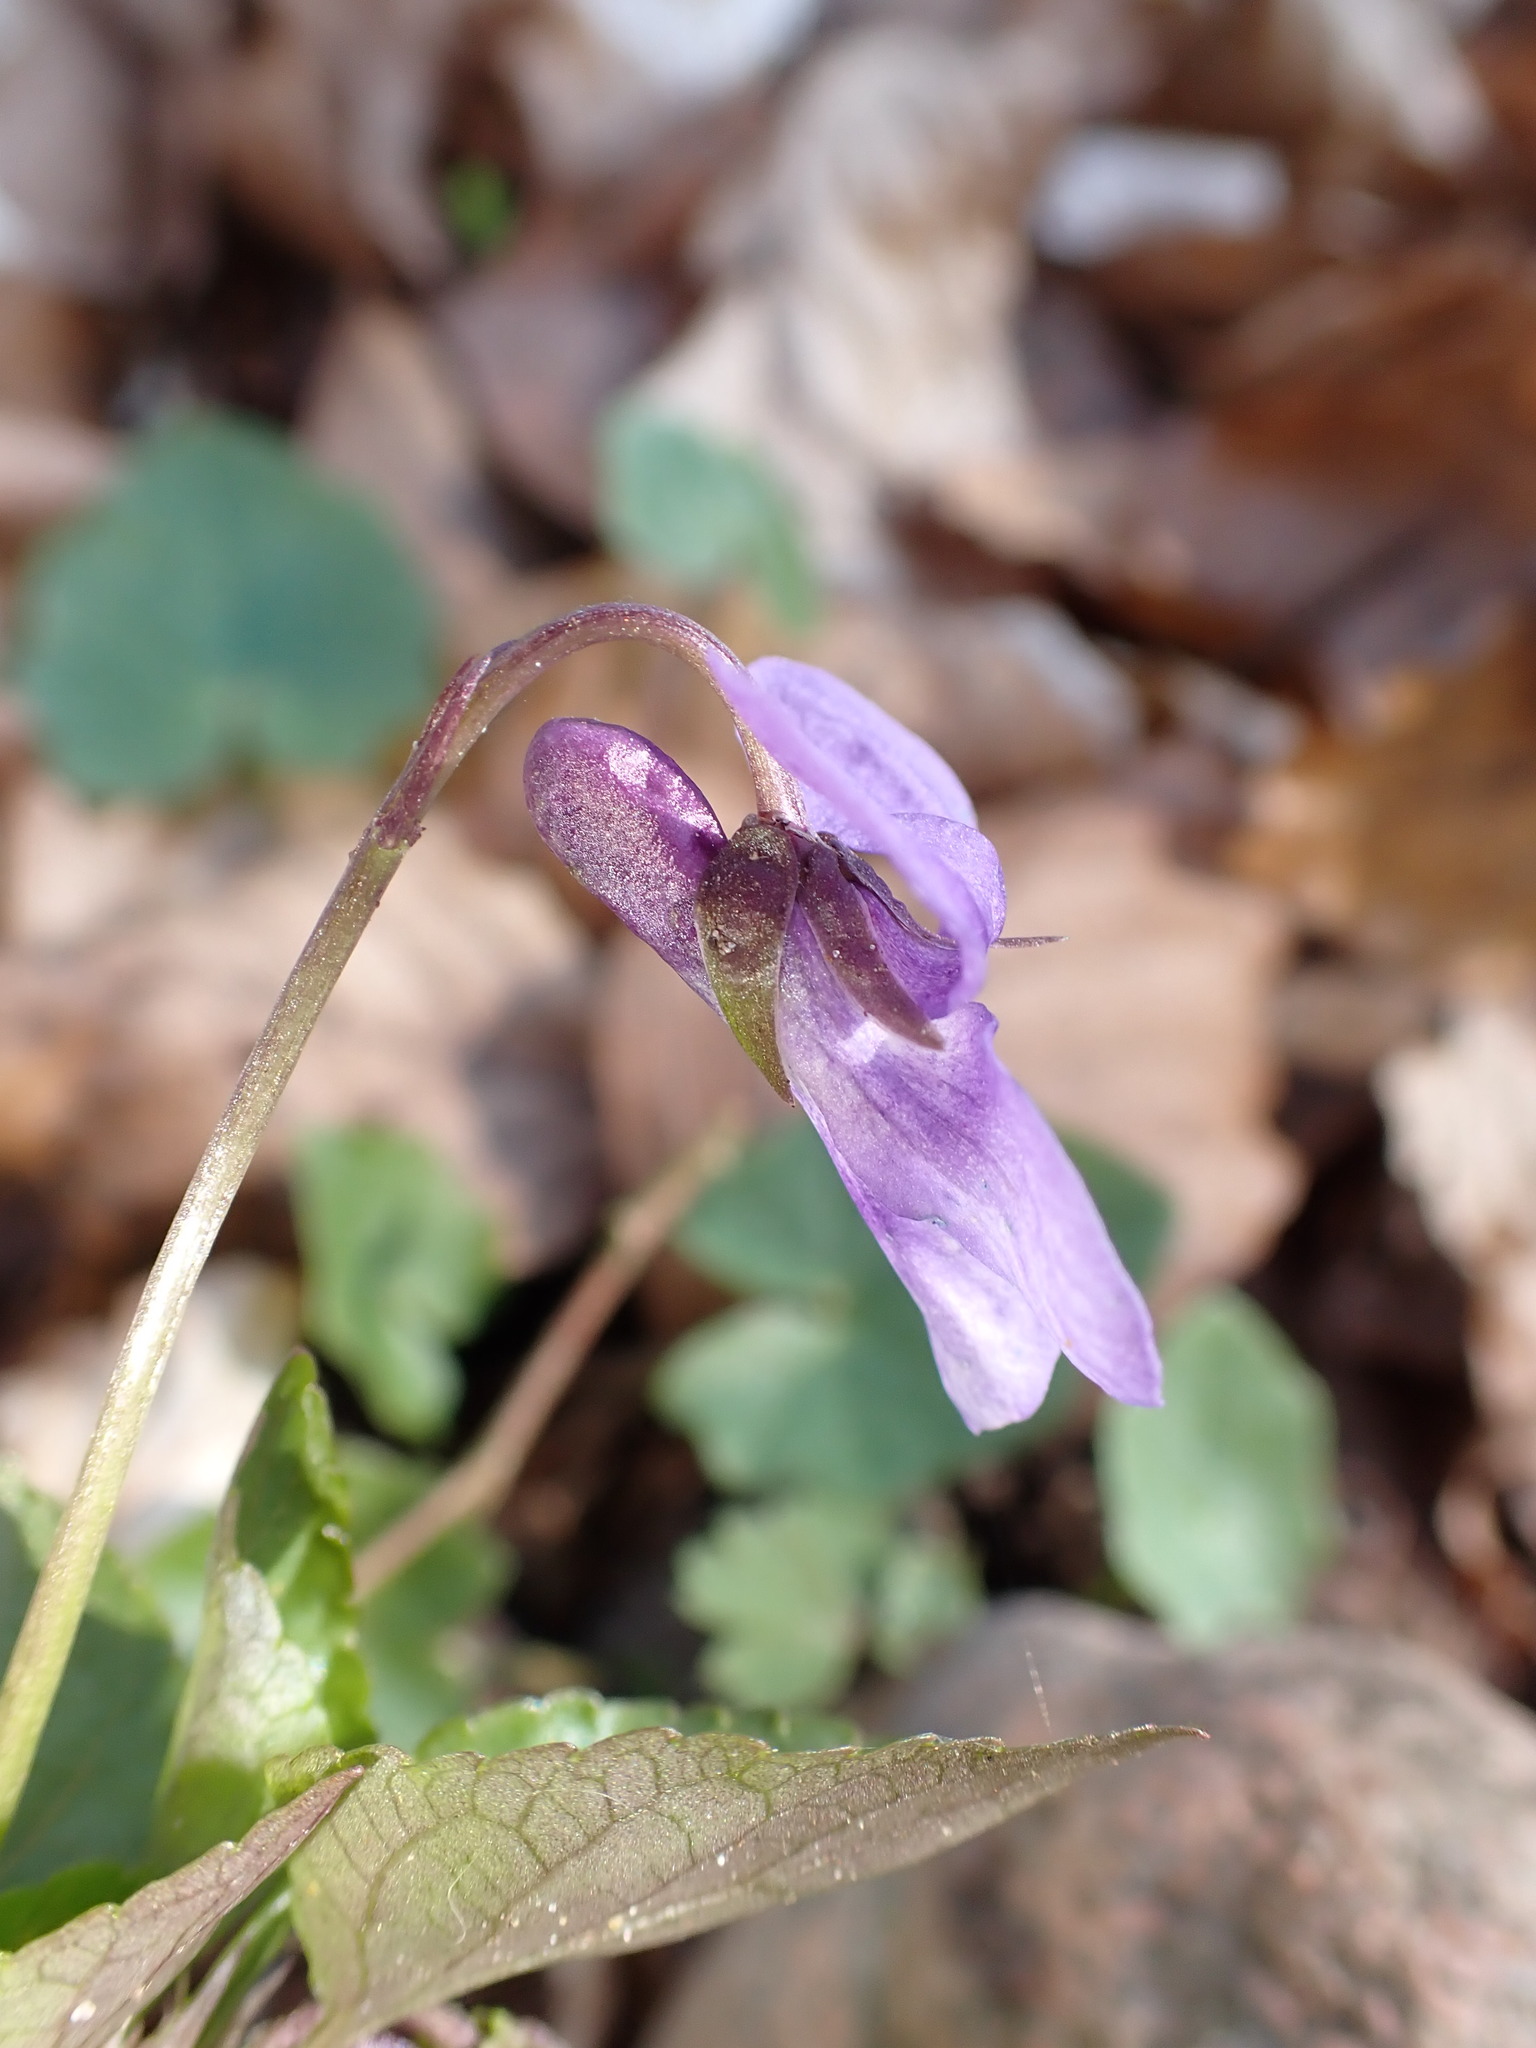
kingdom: Plantae
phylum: Tracheophyta
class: Magnoliopsida
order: Malpighiales
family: Violaceae
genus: Viola
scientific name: Viola reichenbachiana
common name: Early dog-violet
